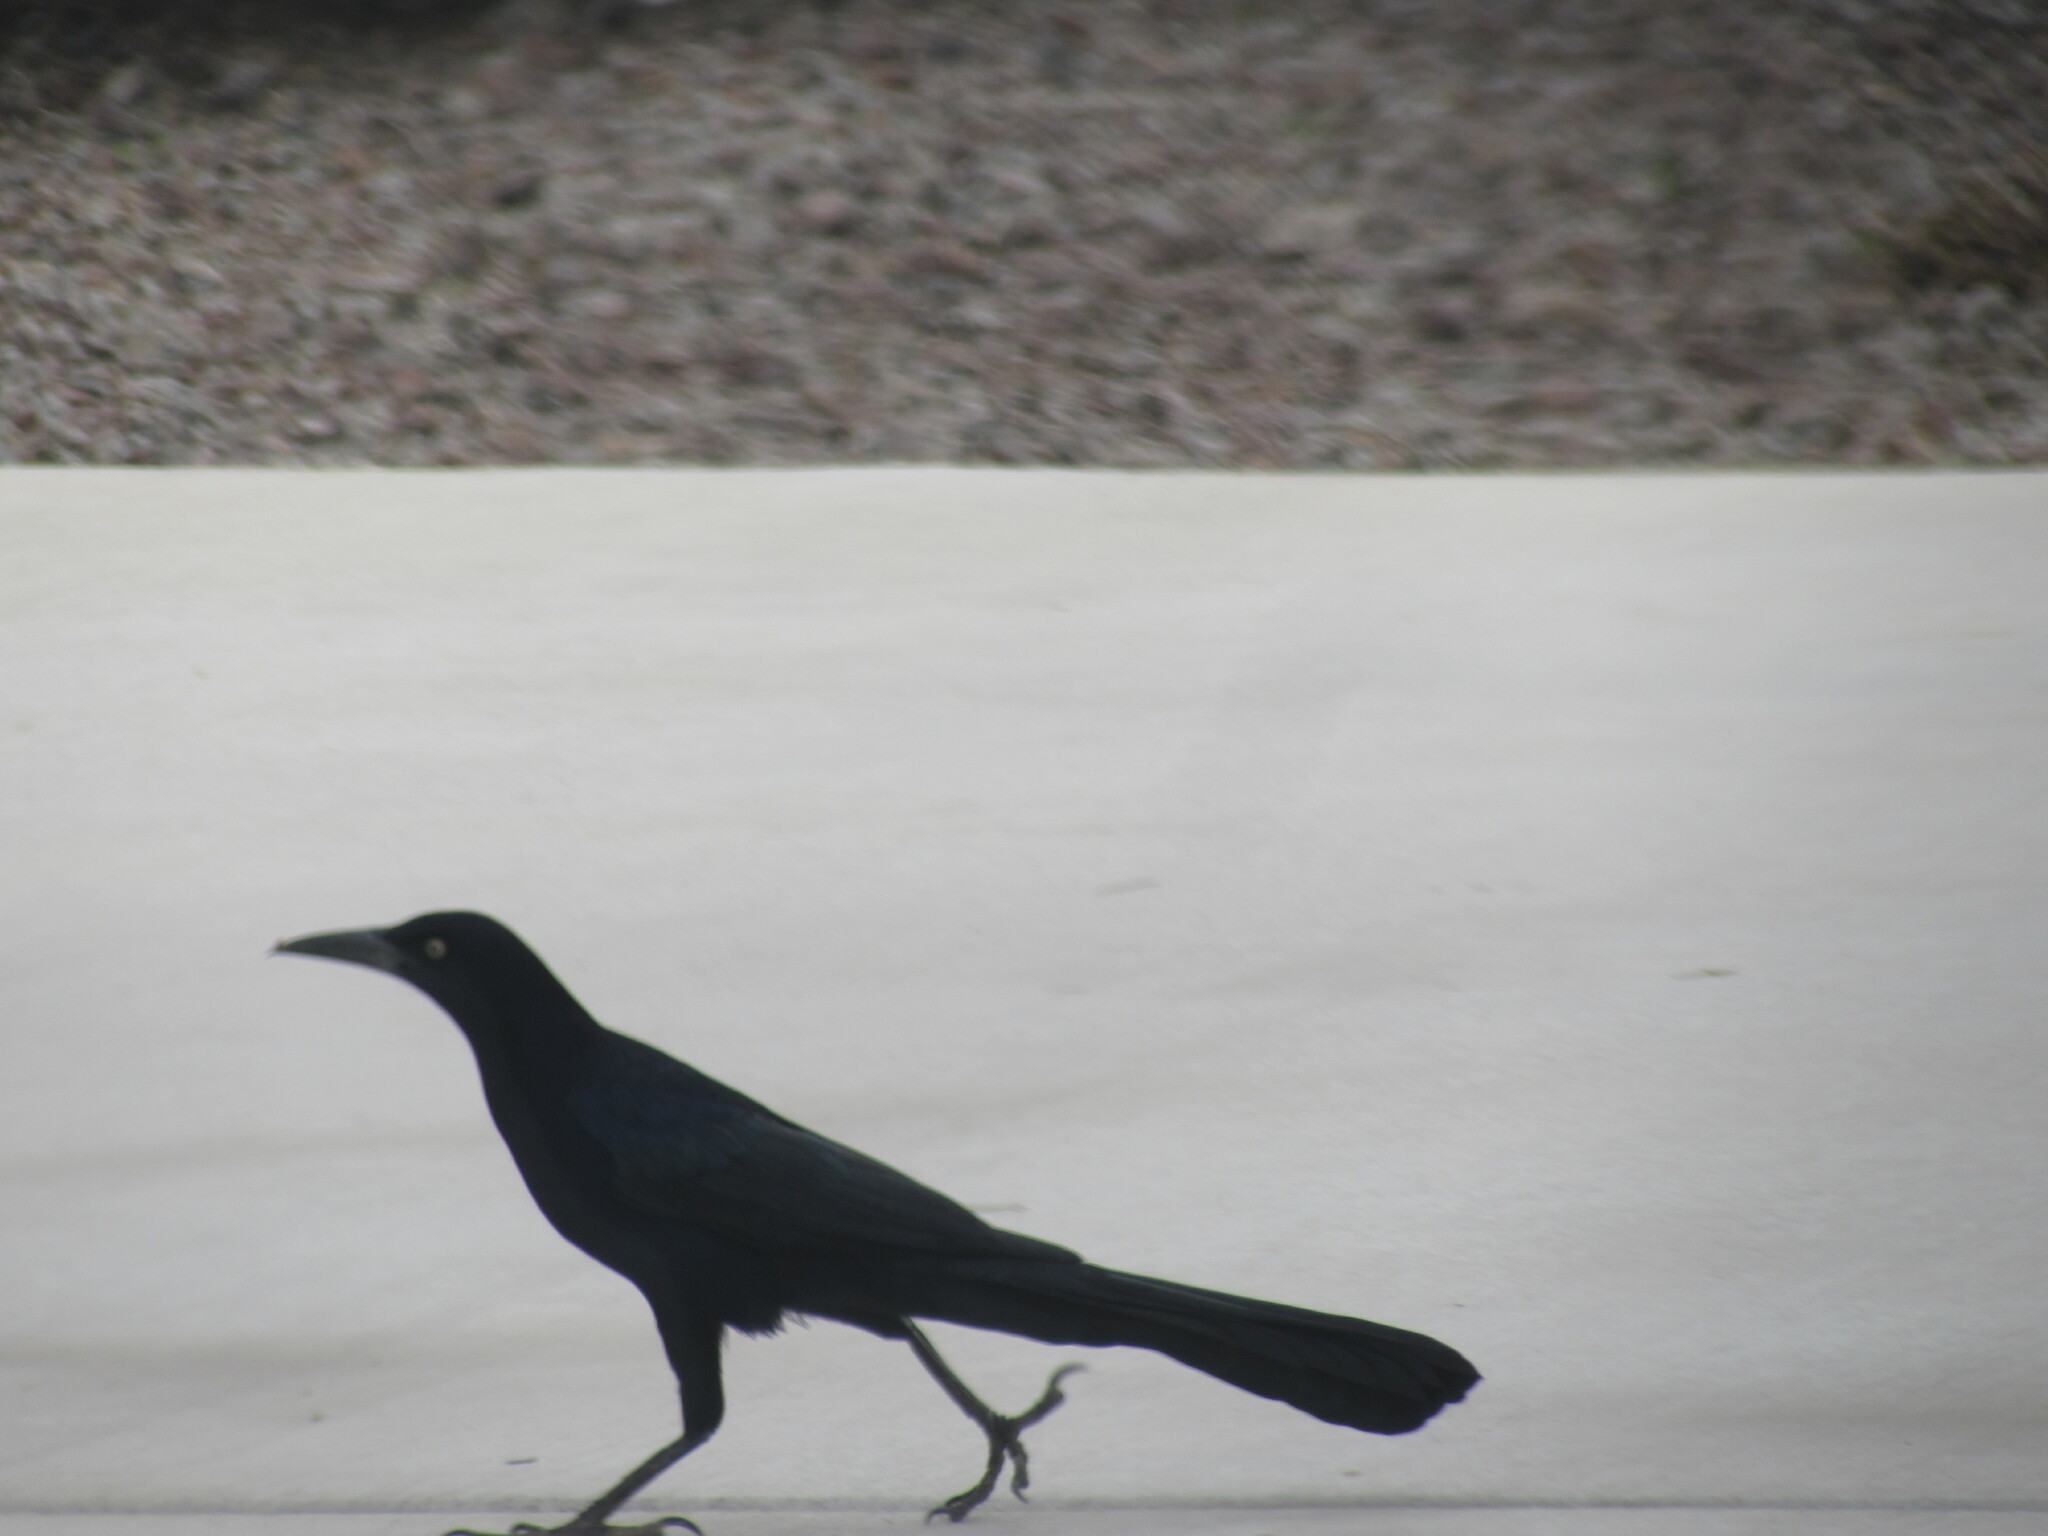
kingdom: Animalia
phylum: Chordata
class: Aves
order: Passeriformes
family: Icteridae
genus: Quiscalus
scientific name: Quiscalus mexicanus
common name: Great-tailed grackle
